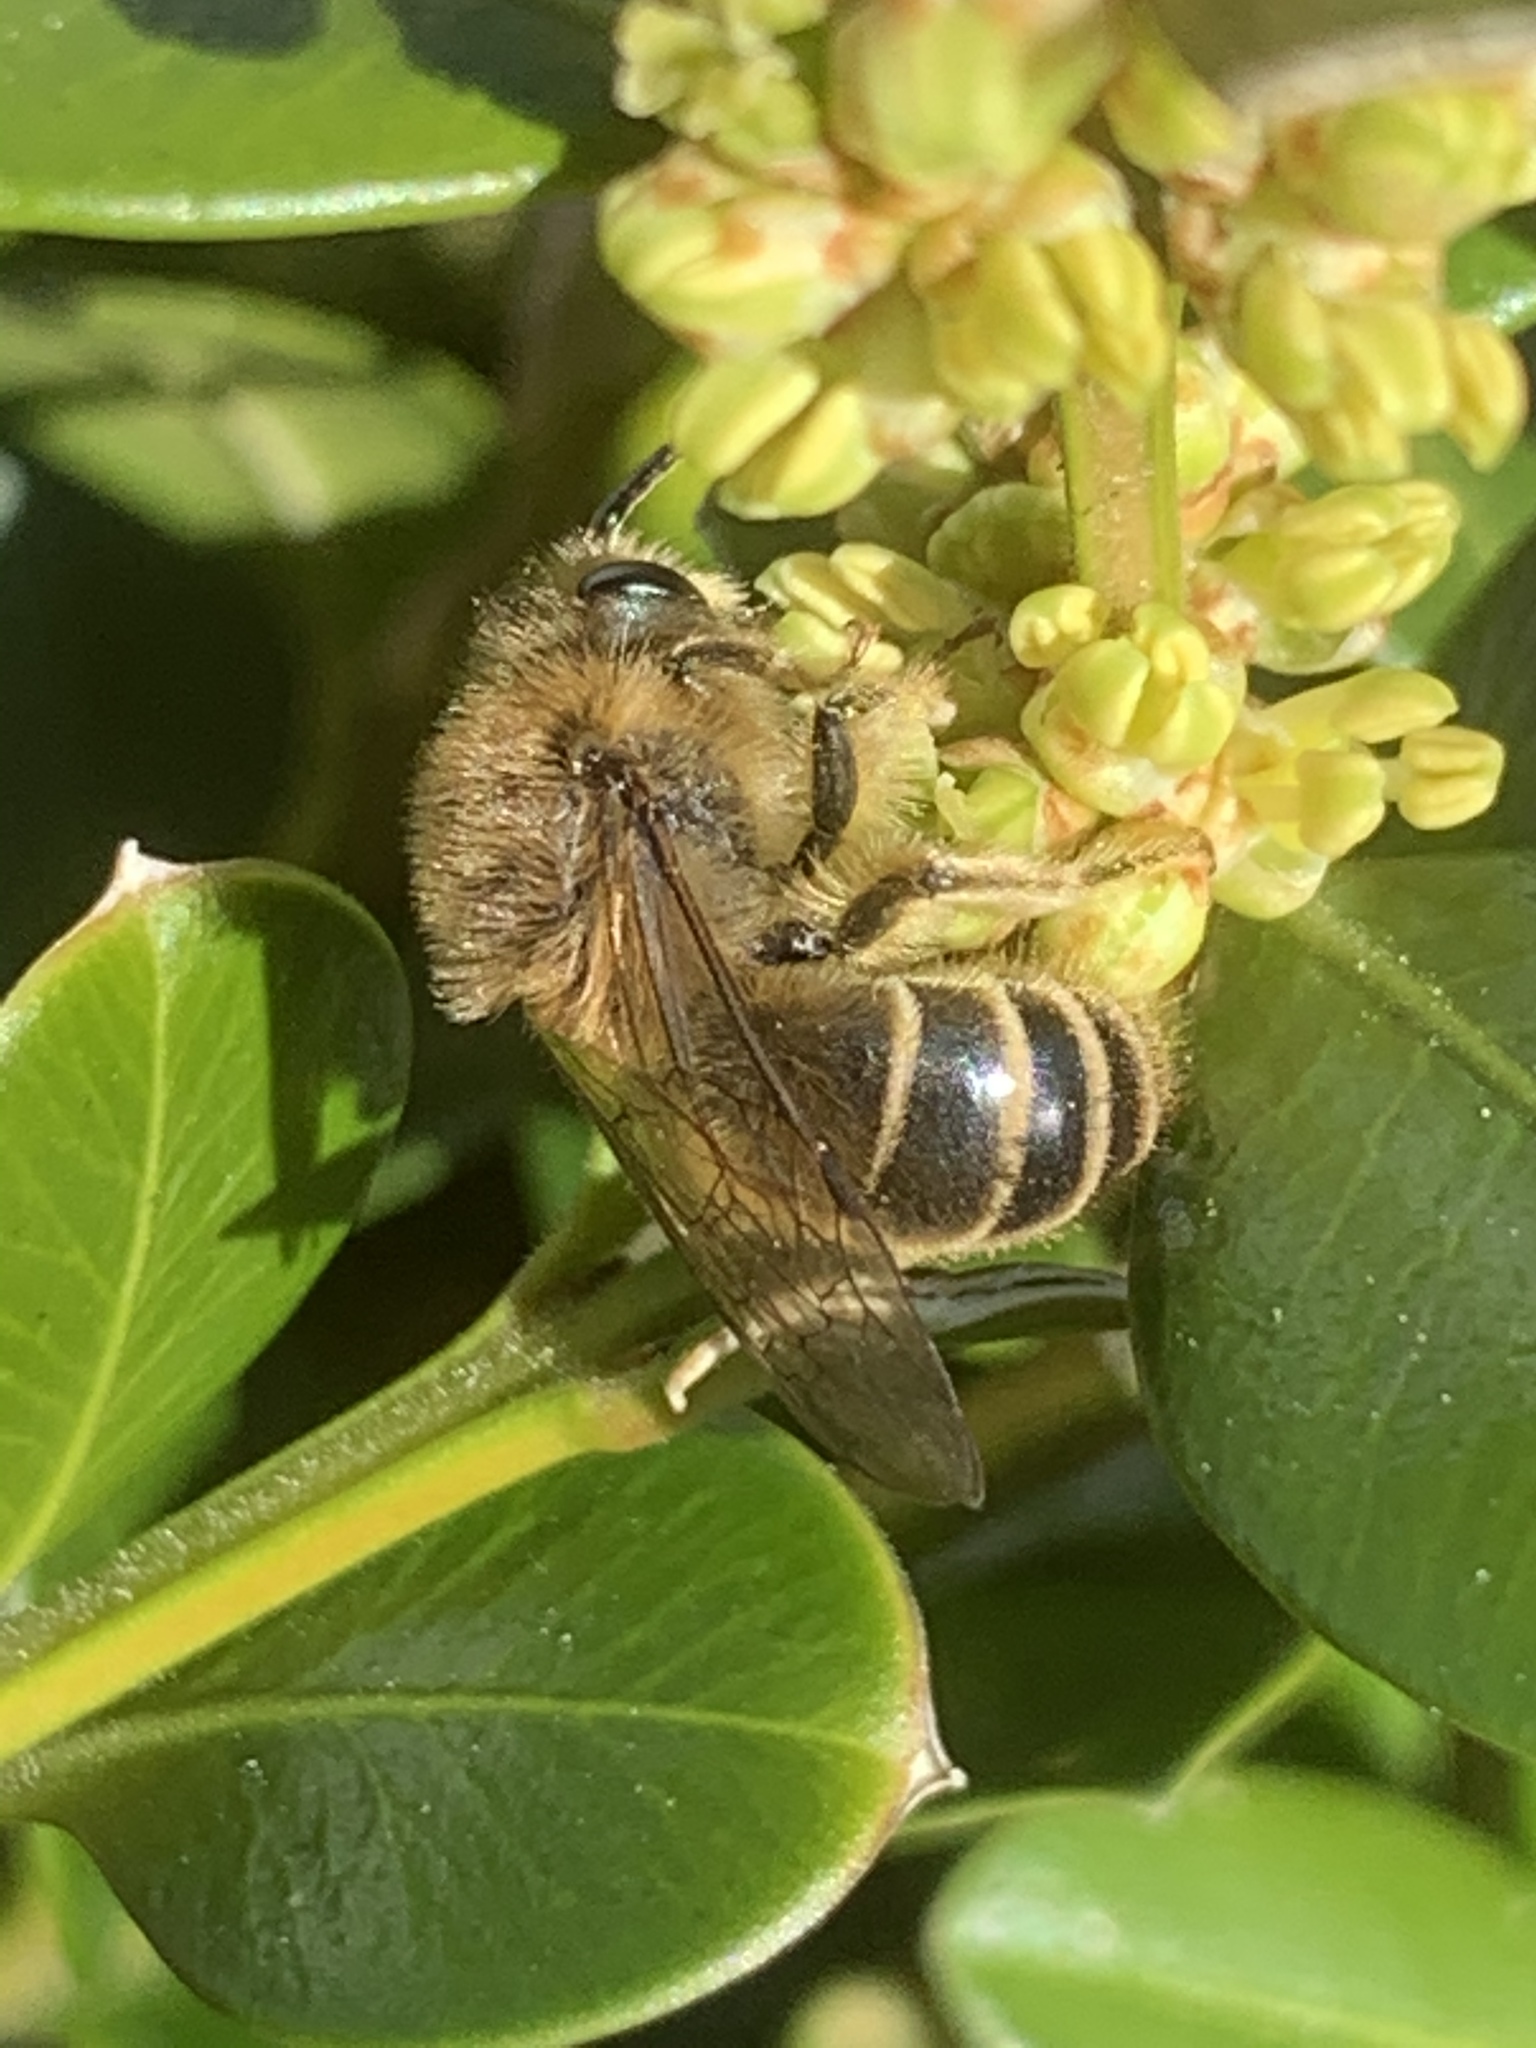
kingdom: Animalia
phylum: Arthropoda
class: Insecta
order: Hymenoptera
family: Colletidae
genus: Colletes
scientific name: Colletes inaequalis
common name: Unequal cellophane bee
